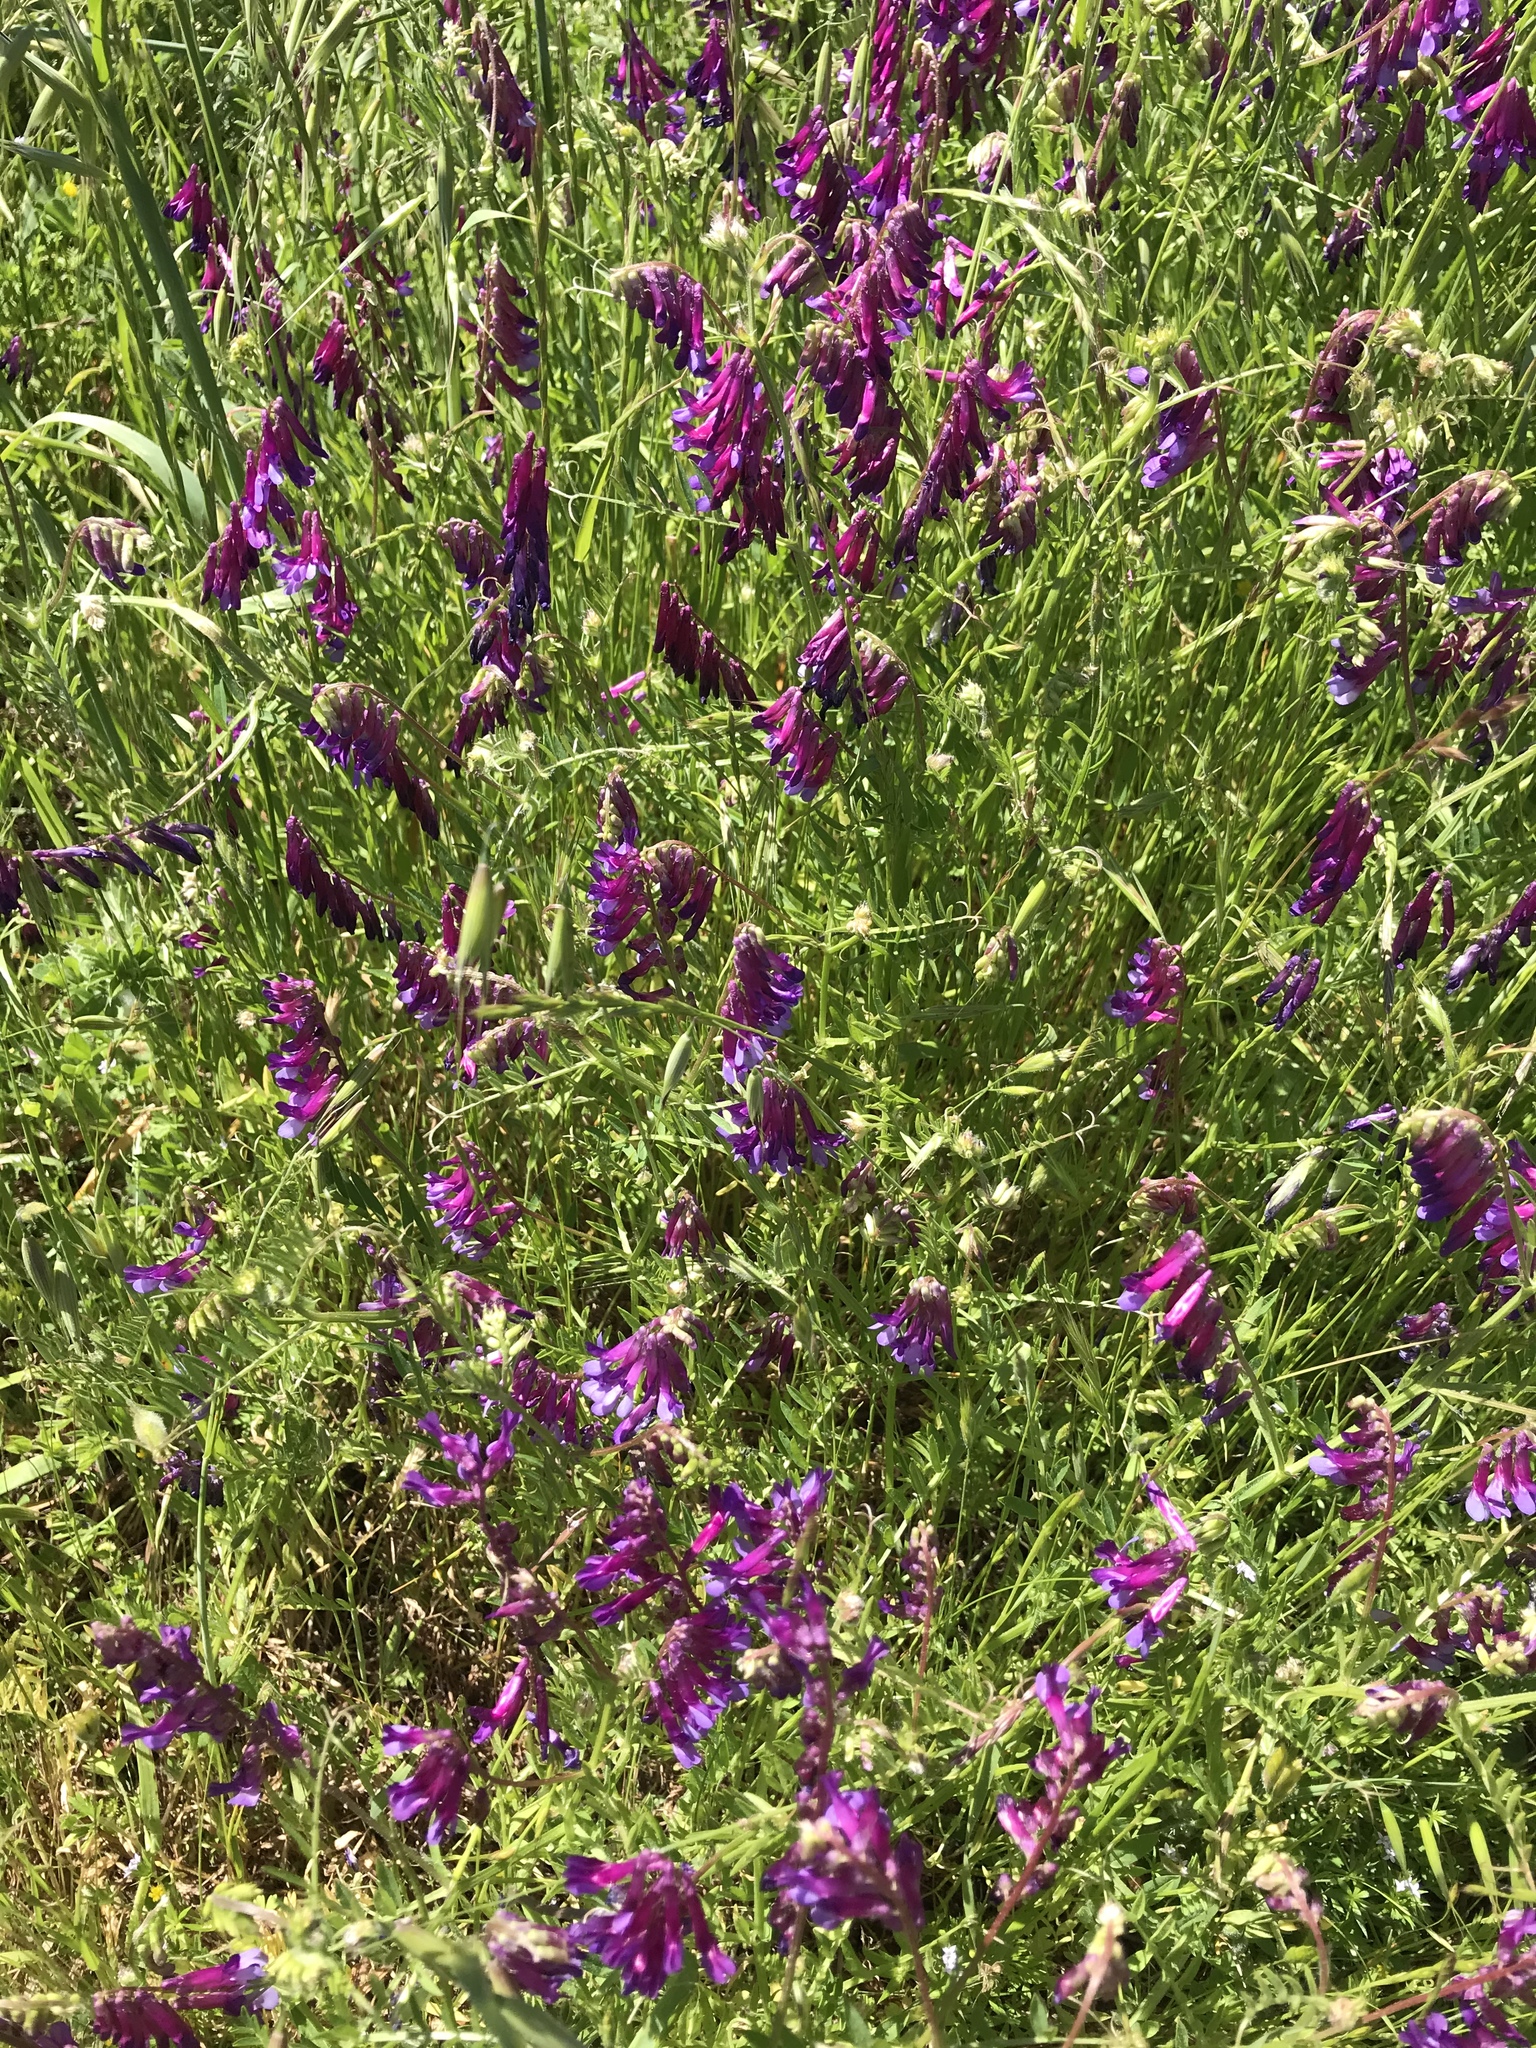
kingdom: Plantae
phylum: Tracheophyta
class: Magnoliopsida
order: Fabales
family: Fabaceae
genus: Vicia
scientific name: Vicia villosa
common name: Fodder vetch
